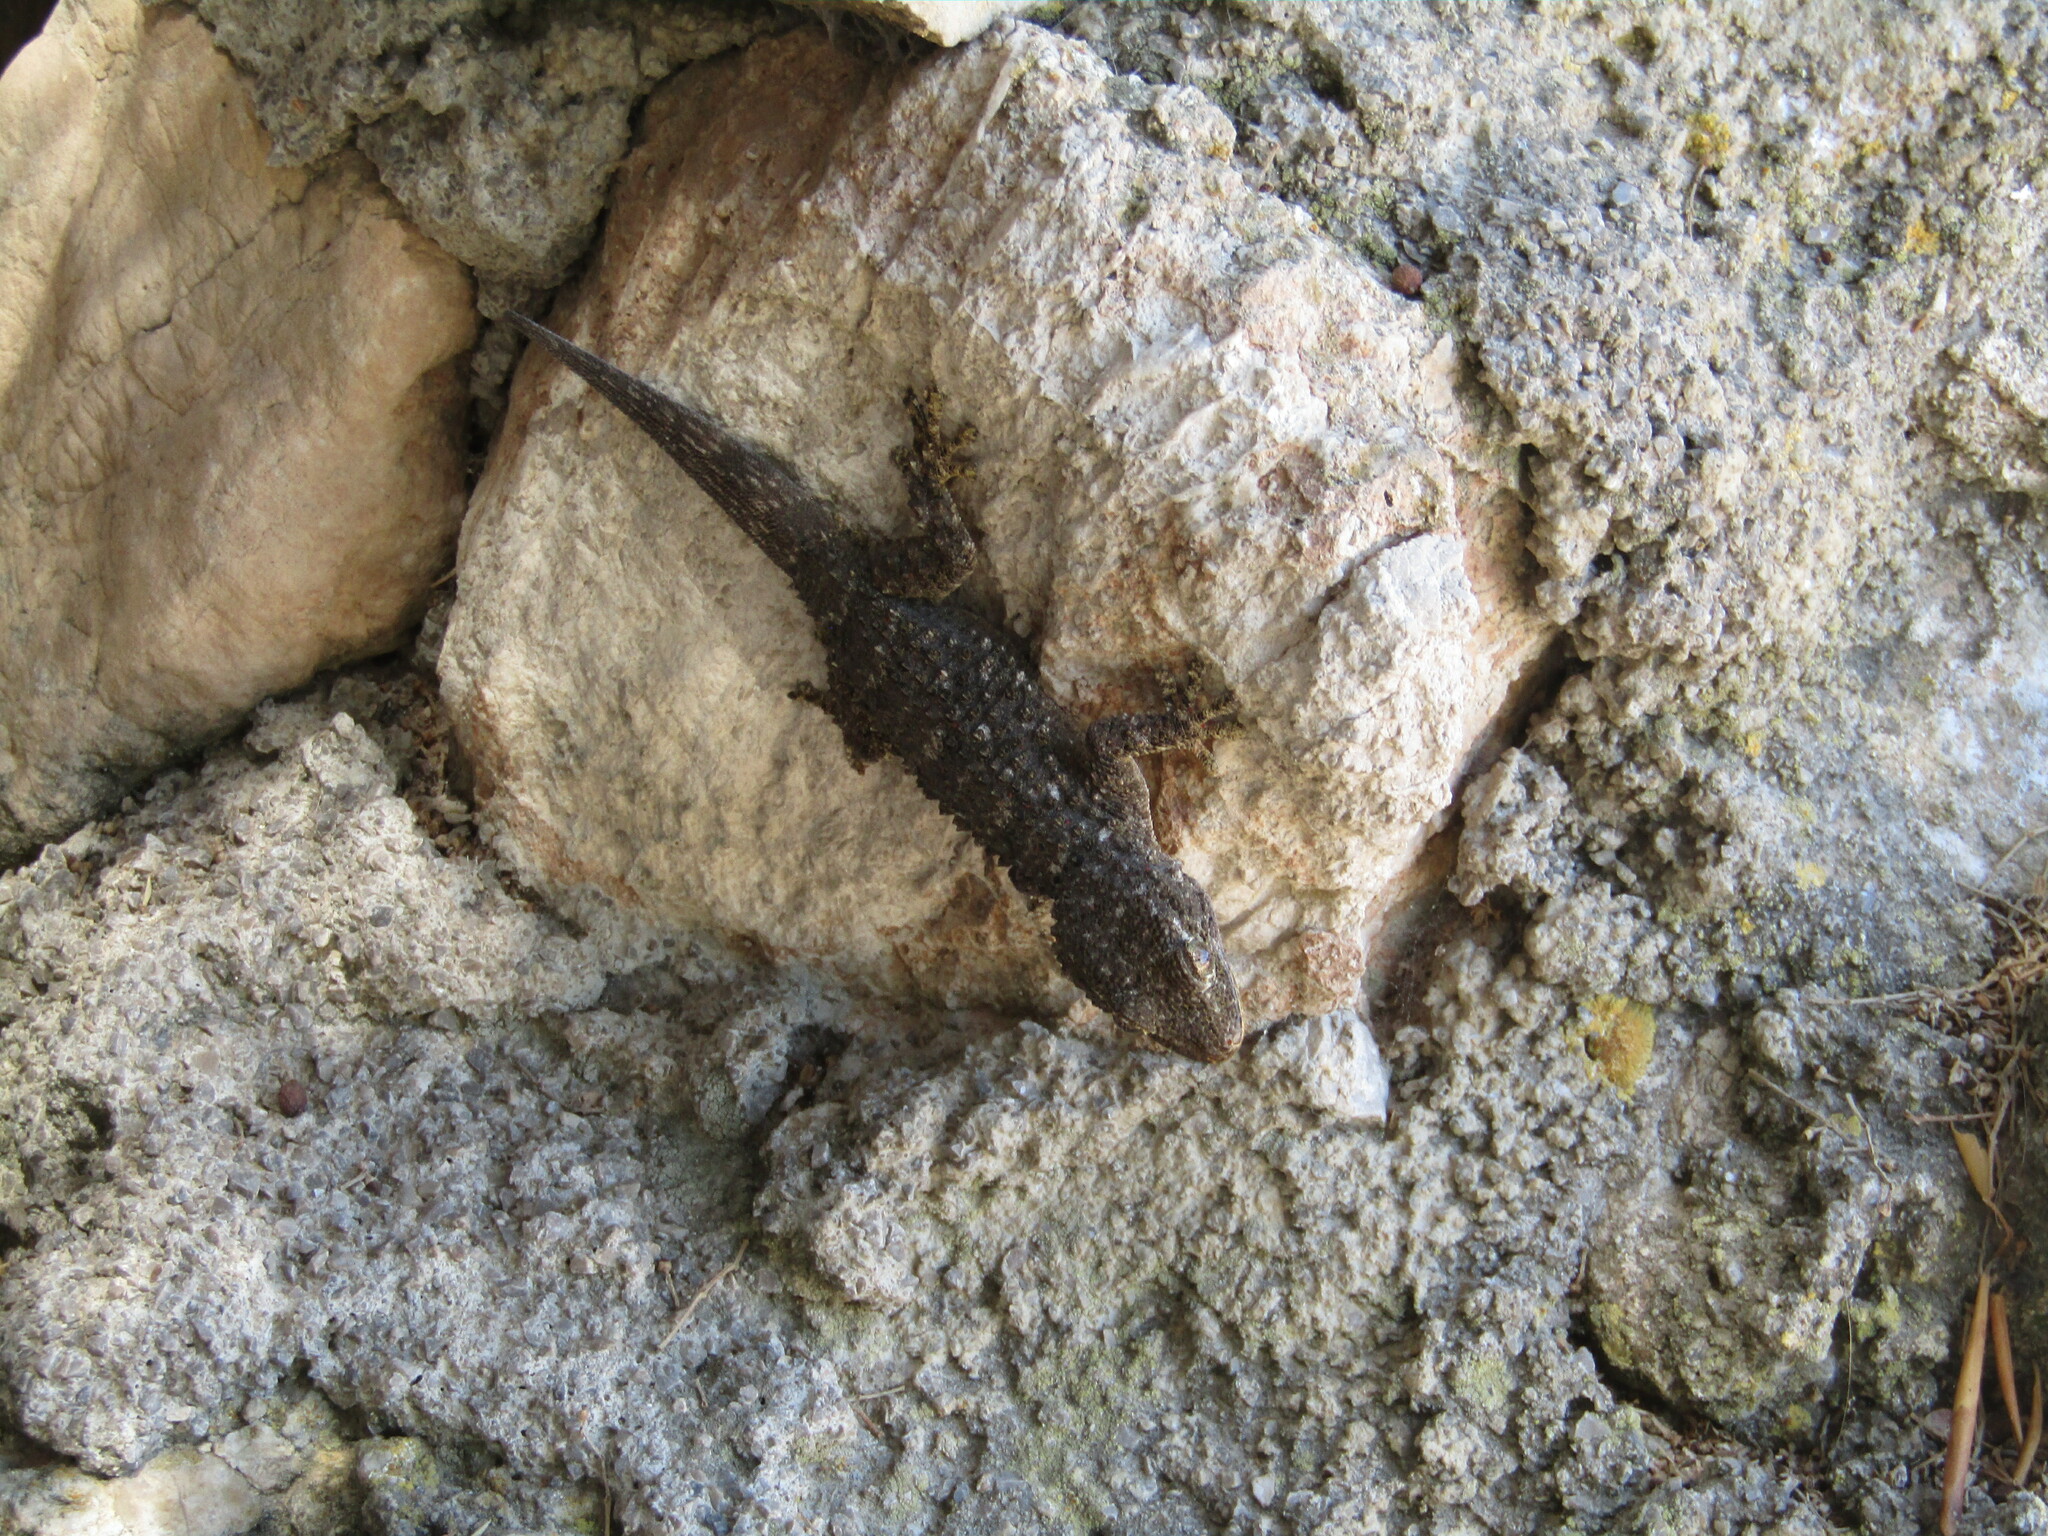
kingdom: Animalia
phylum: Chordata
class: Squamata
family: Phyllodactylidae
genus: Tarentola
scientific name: Tarentola mauritanica
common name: Moorish gecko
